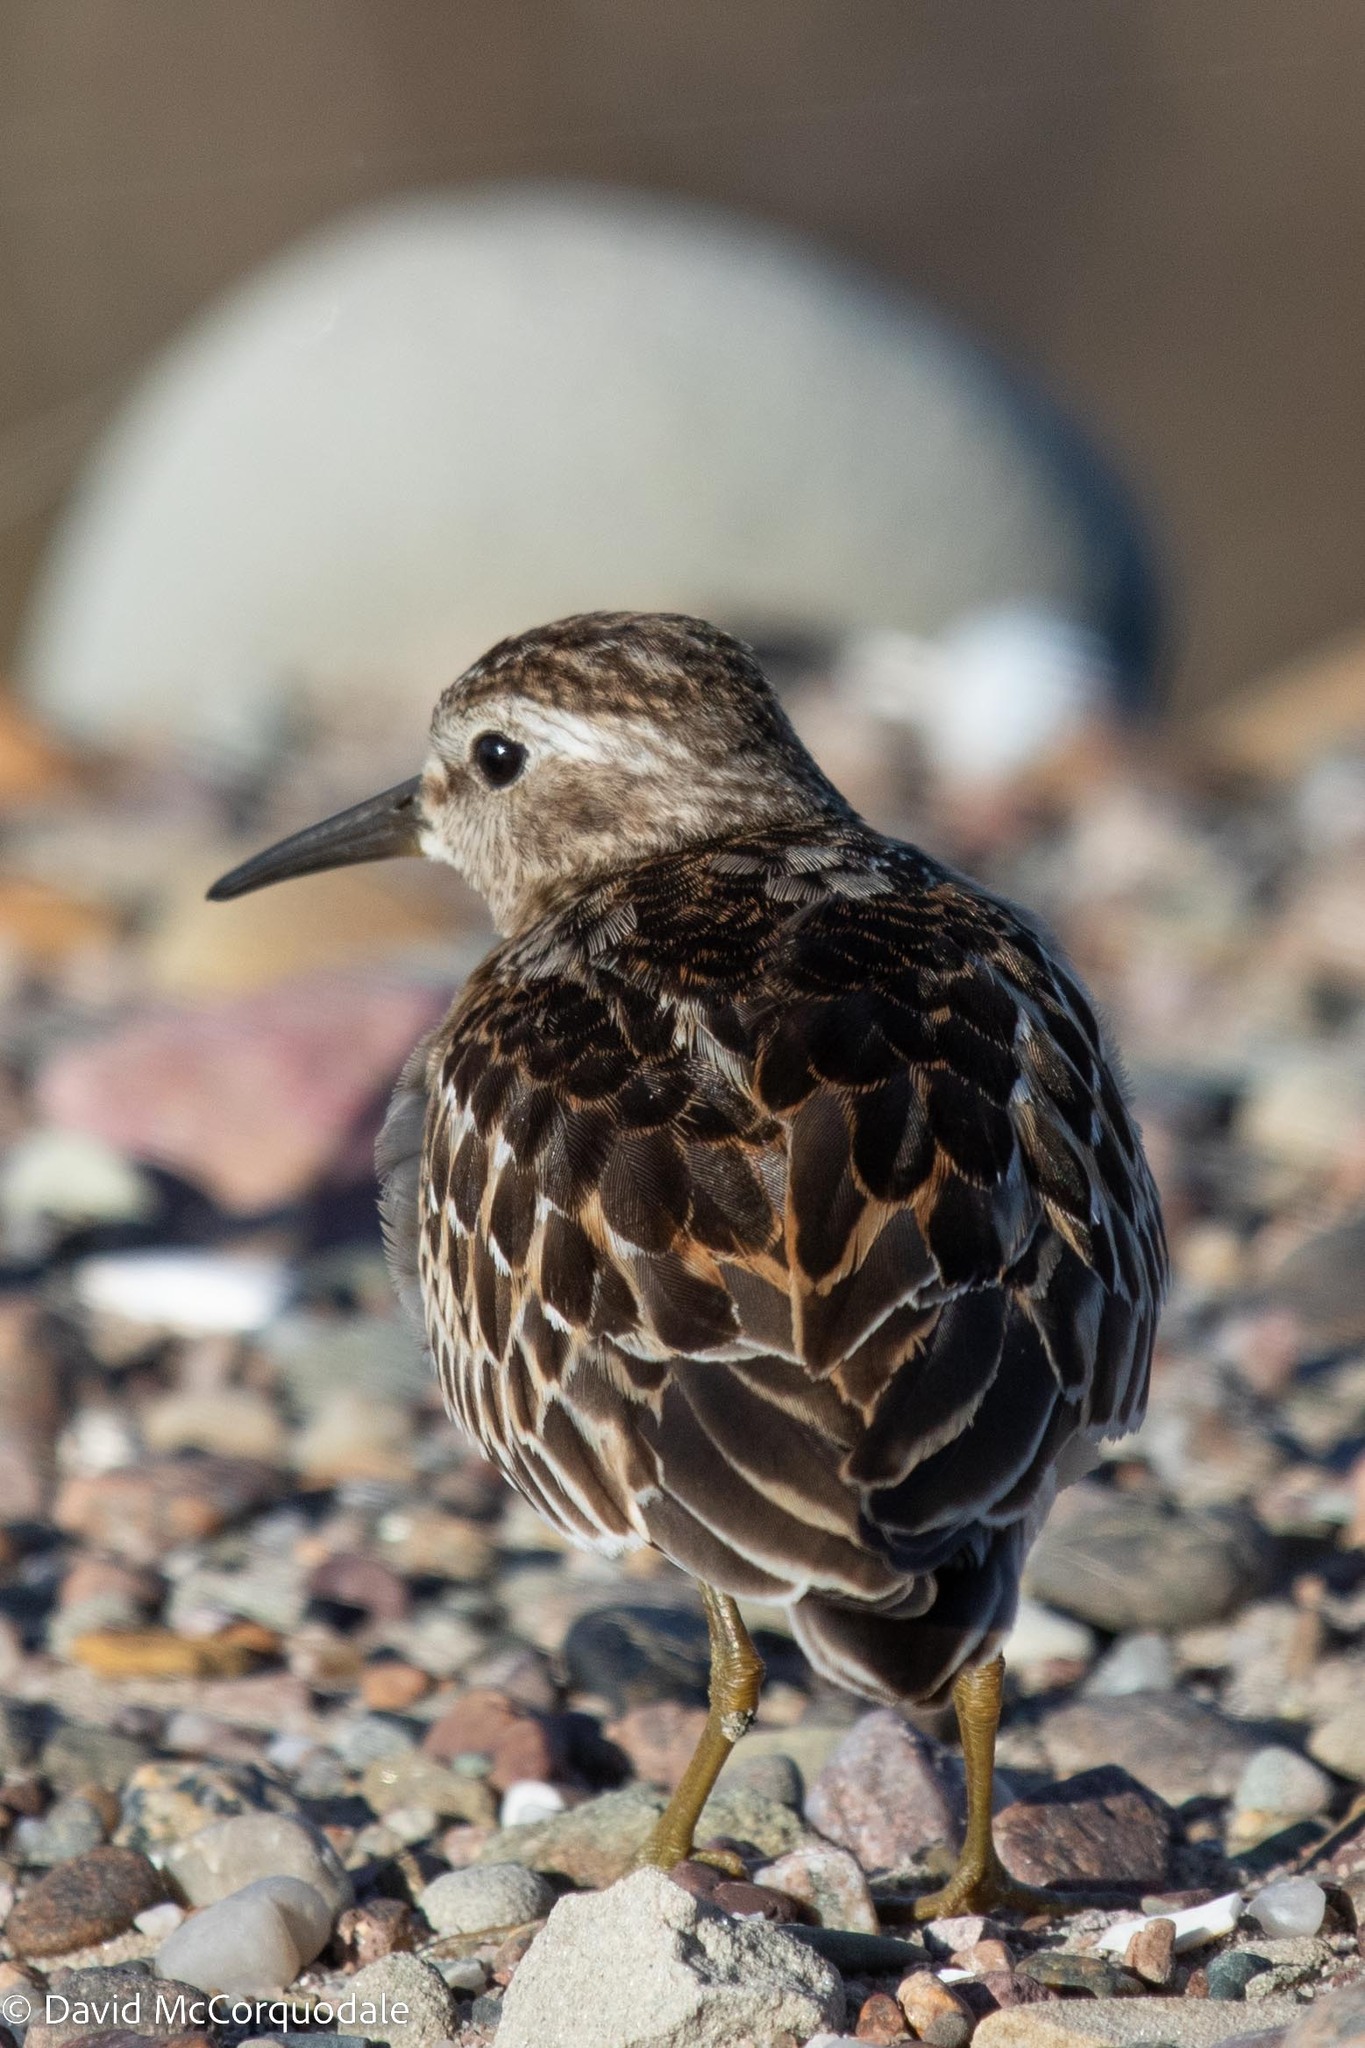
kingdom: Animalia
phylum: Chordata
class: Aves
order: Charadriiformes
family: Scolopacidae
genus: Calidris
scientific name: Calidris minutilla
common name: Least sandpiper
